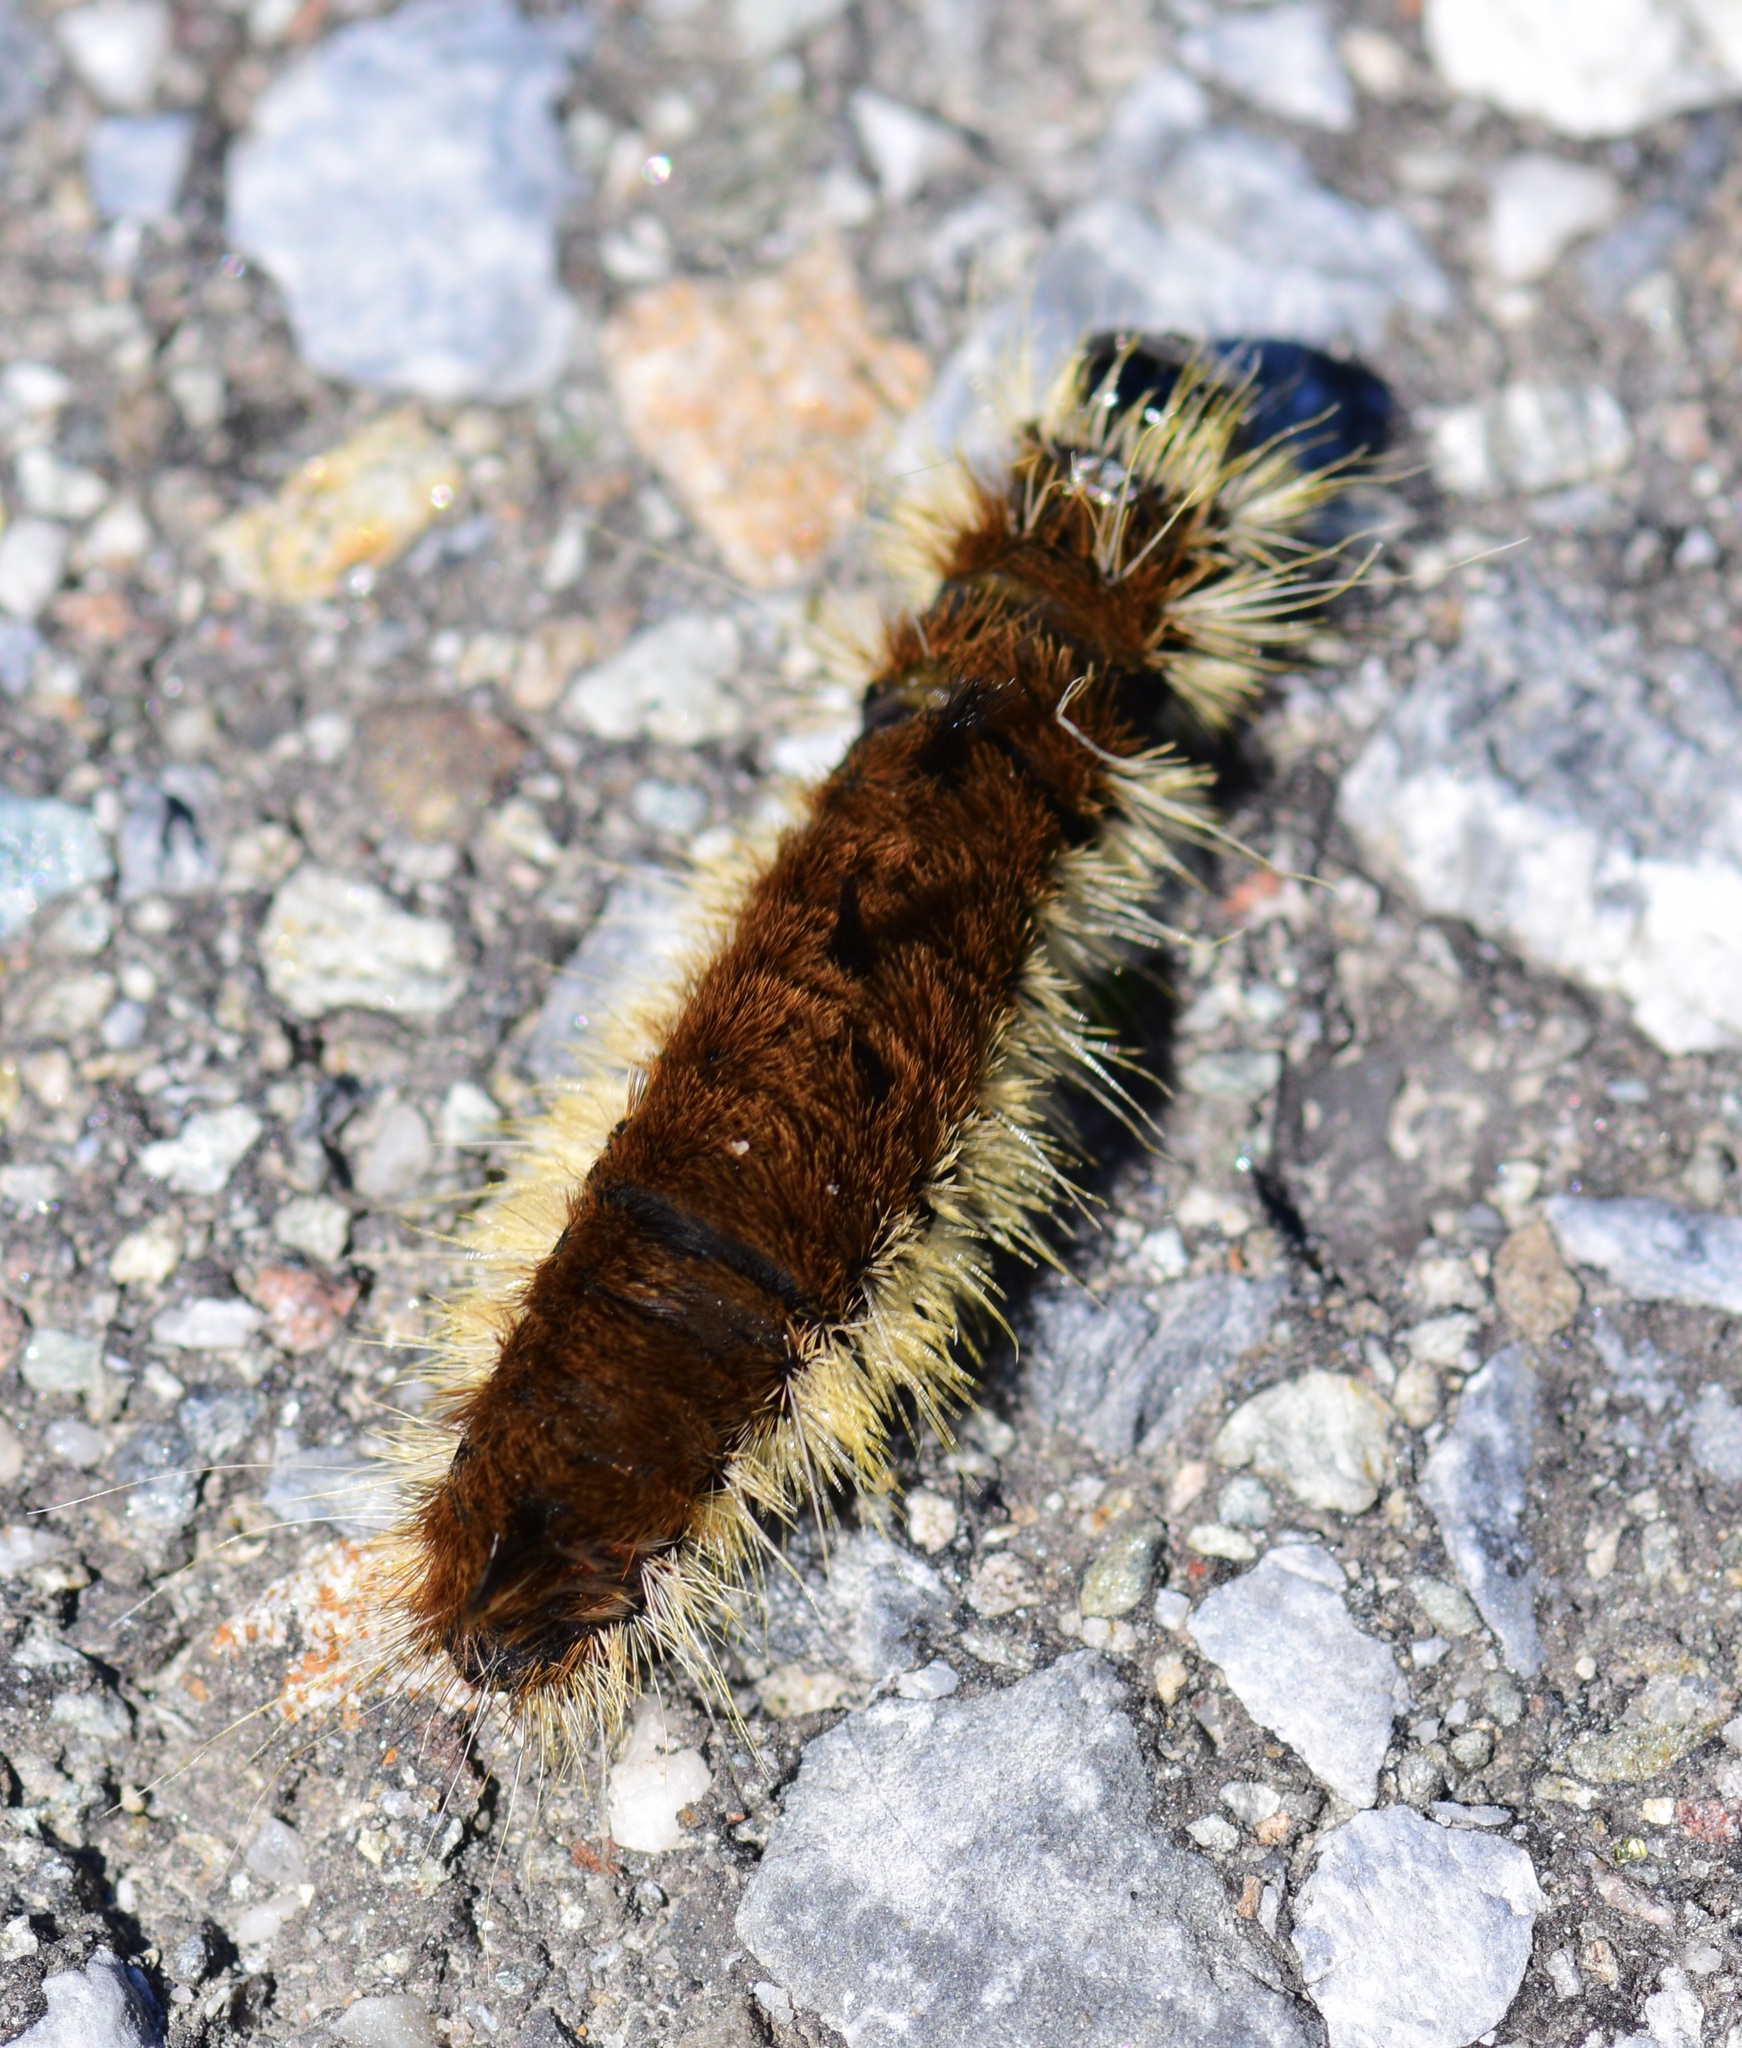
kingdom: Animalia
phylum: Arthropoda
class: Insecta
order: Lepidoptera
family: Noctuidae
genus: Acronicta
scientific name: Acronicta insita
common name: Large gray dagger
